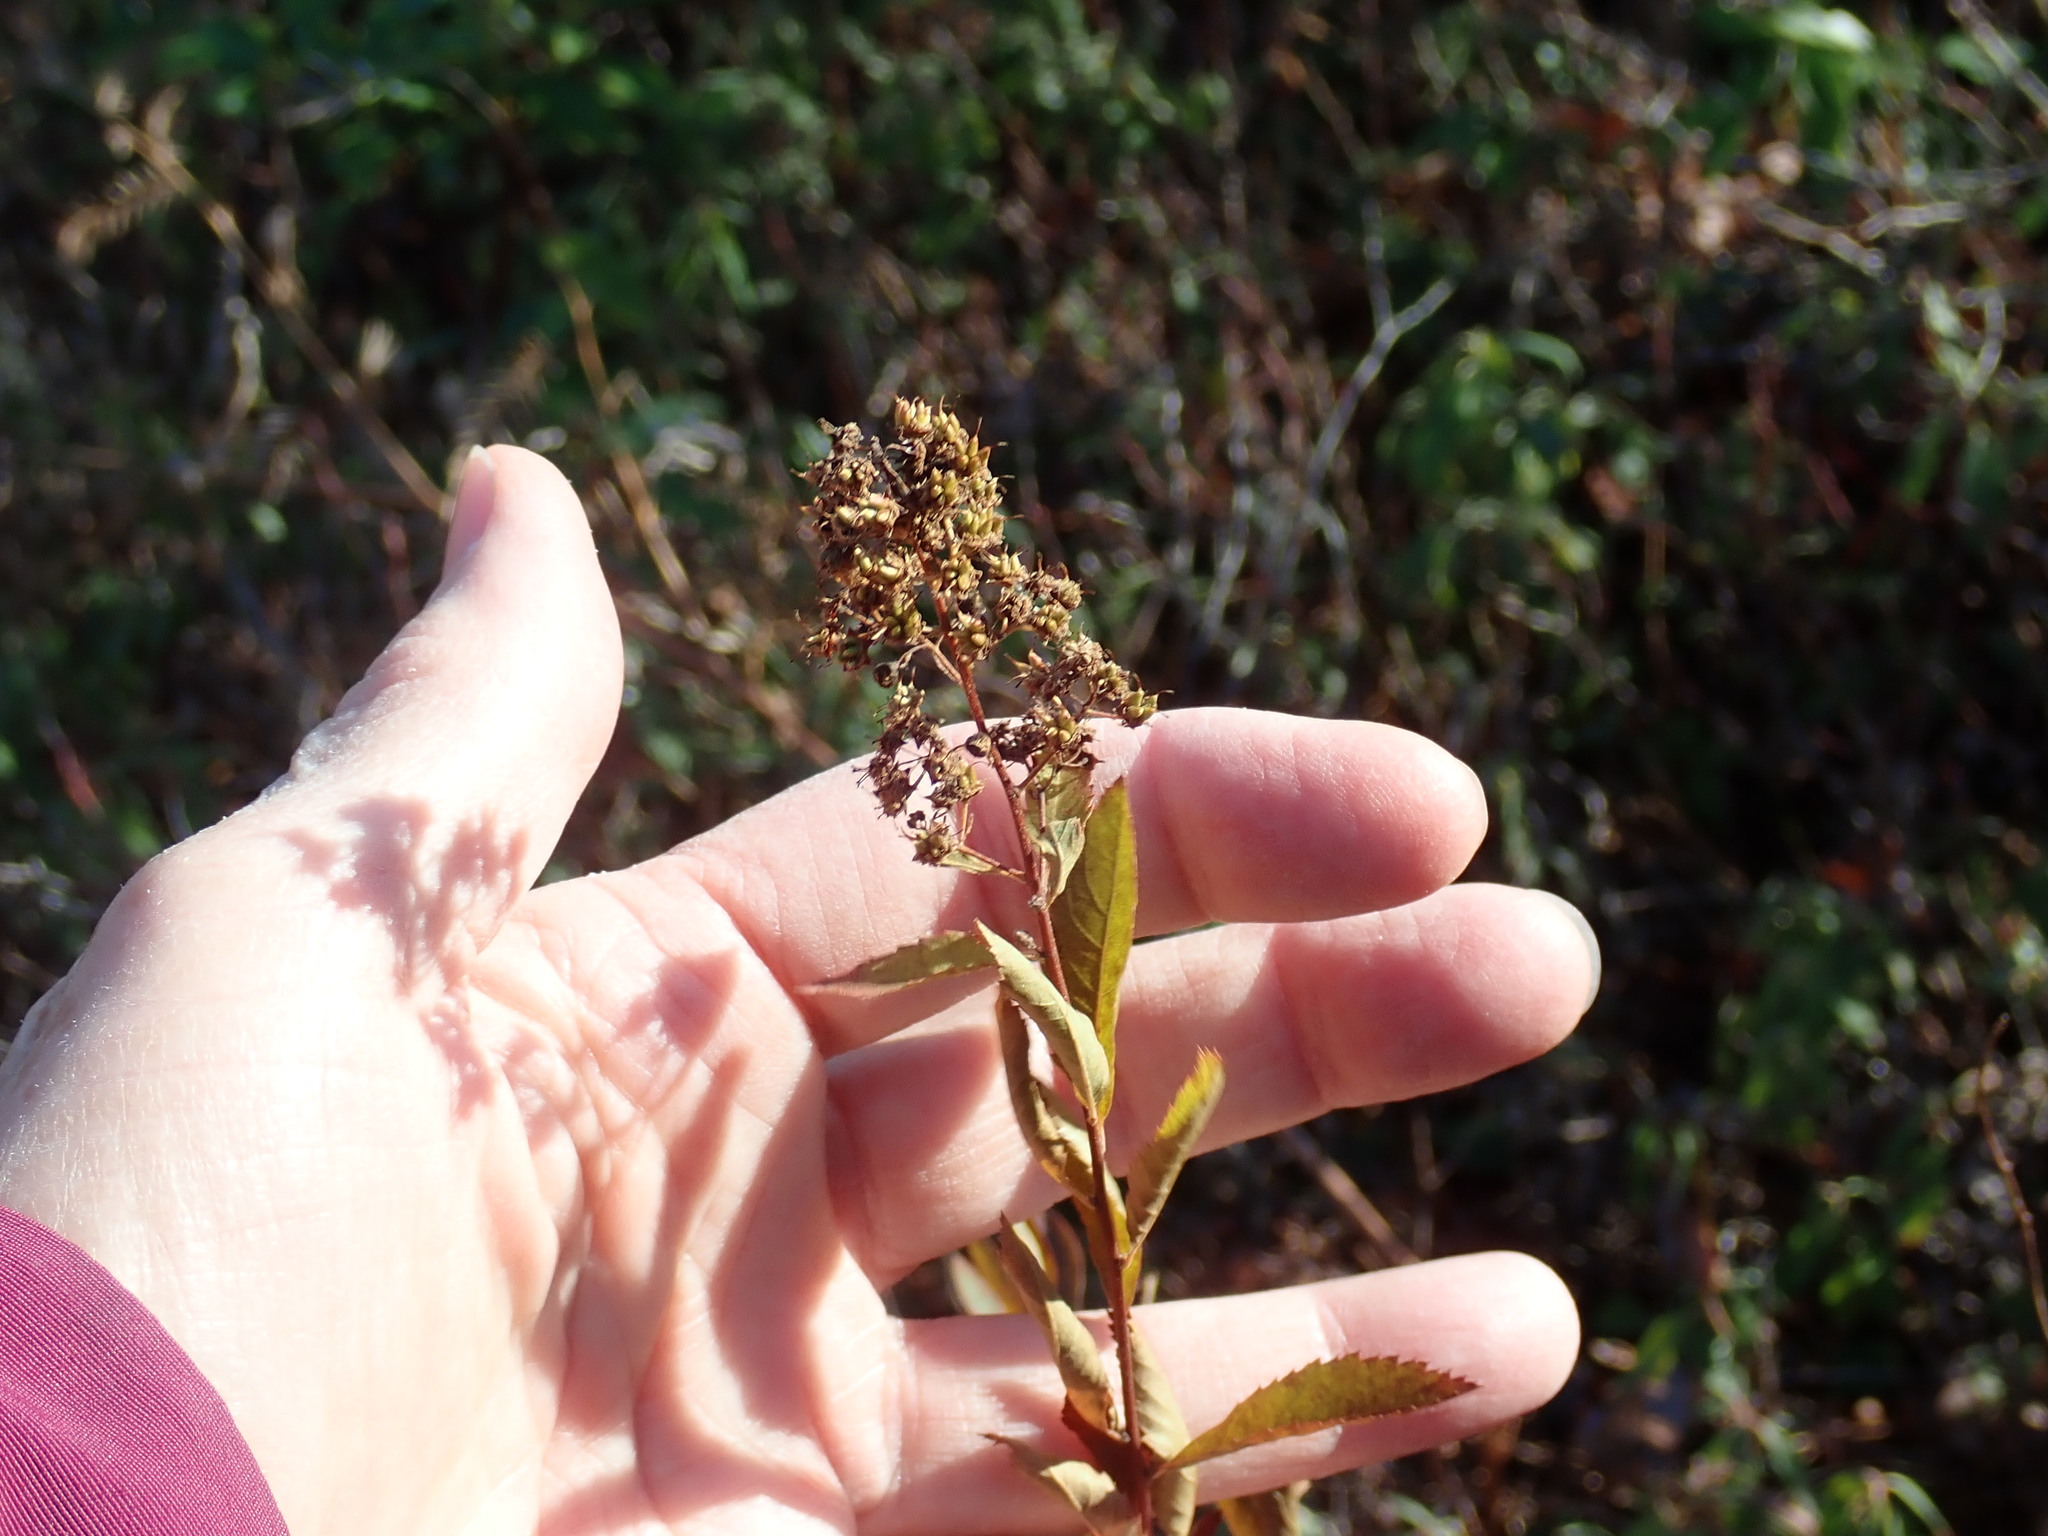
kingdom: Plantae
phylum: Tracheophyta
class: Magnoliopsida
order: Rosales
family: Rosaceae
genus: Spiraea
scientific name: Spiraea alba
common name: Pale bridewort
